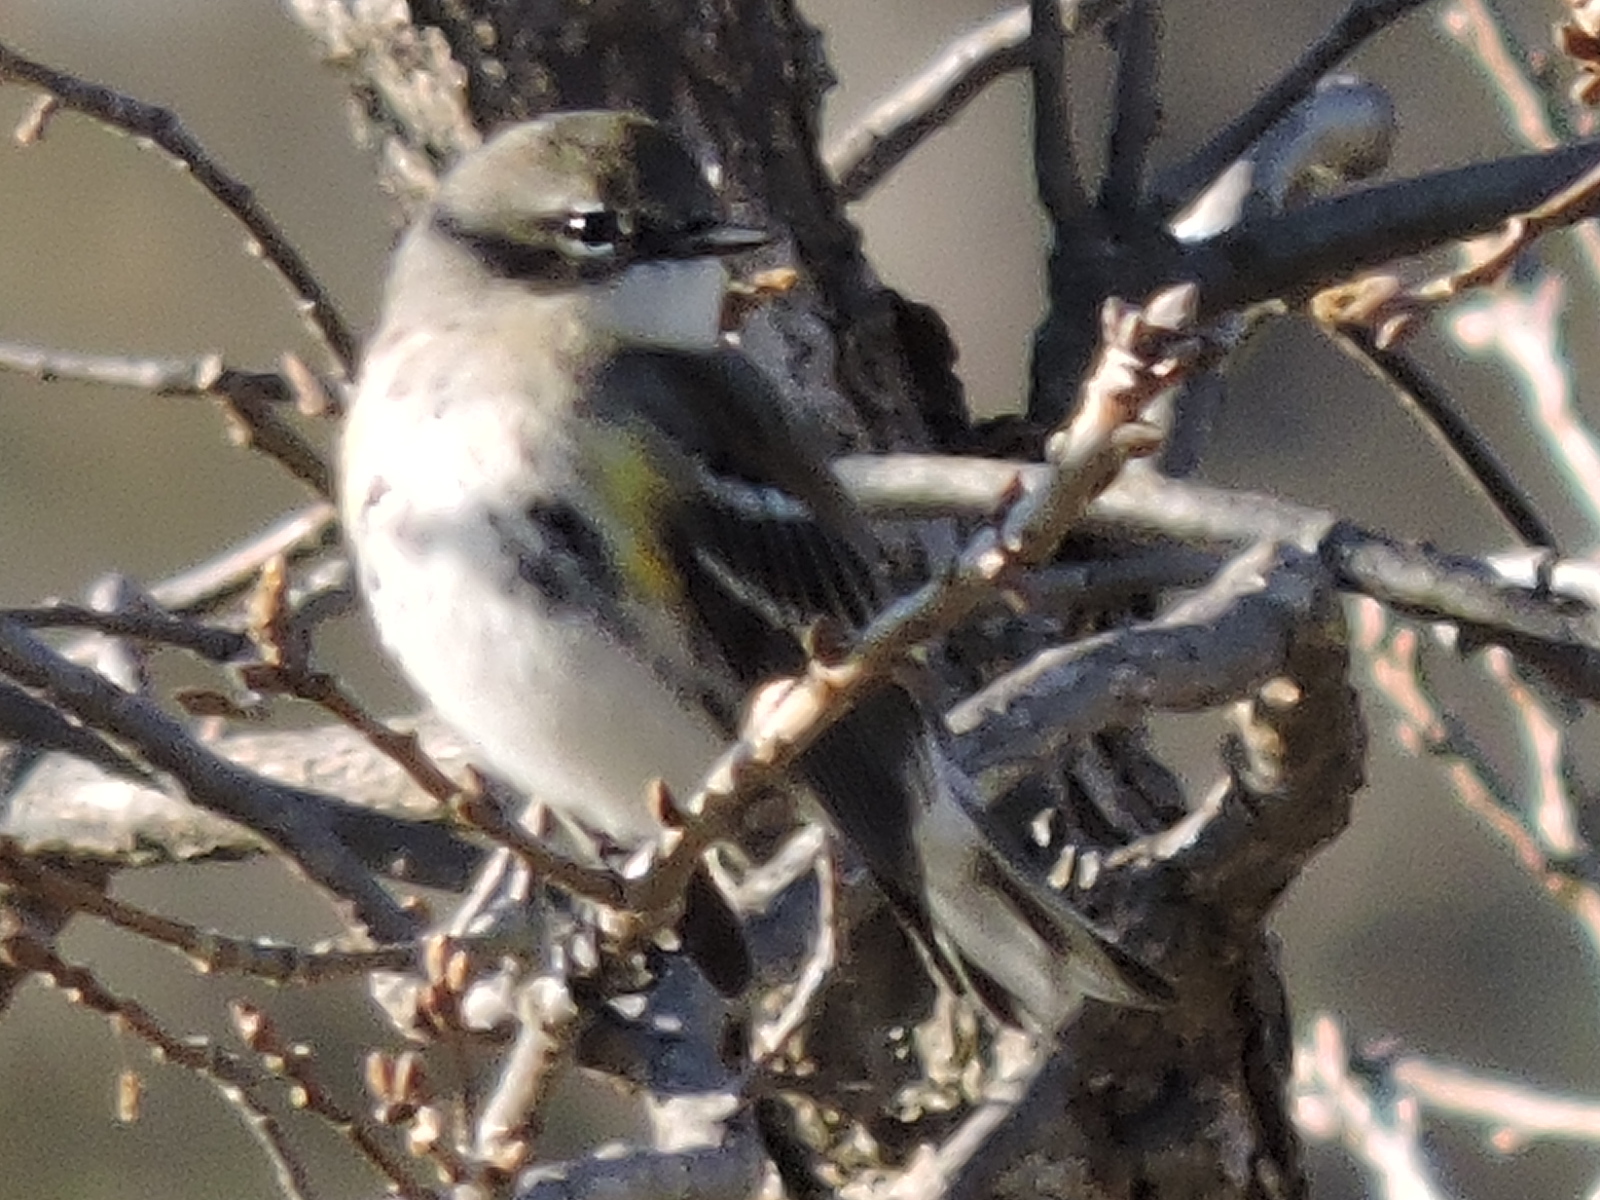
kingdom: Animalia
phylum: Chordata
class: Aves
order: Passeriformes
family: Parulidae
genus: Setophaga
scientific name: Setophaga coronata
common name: Myrtle warbler
